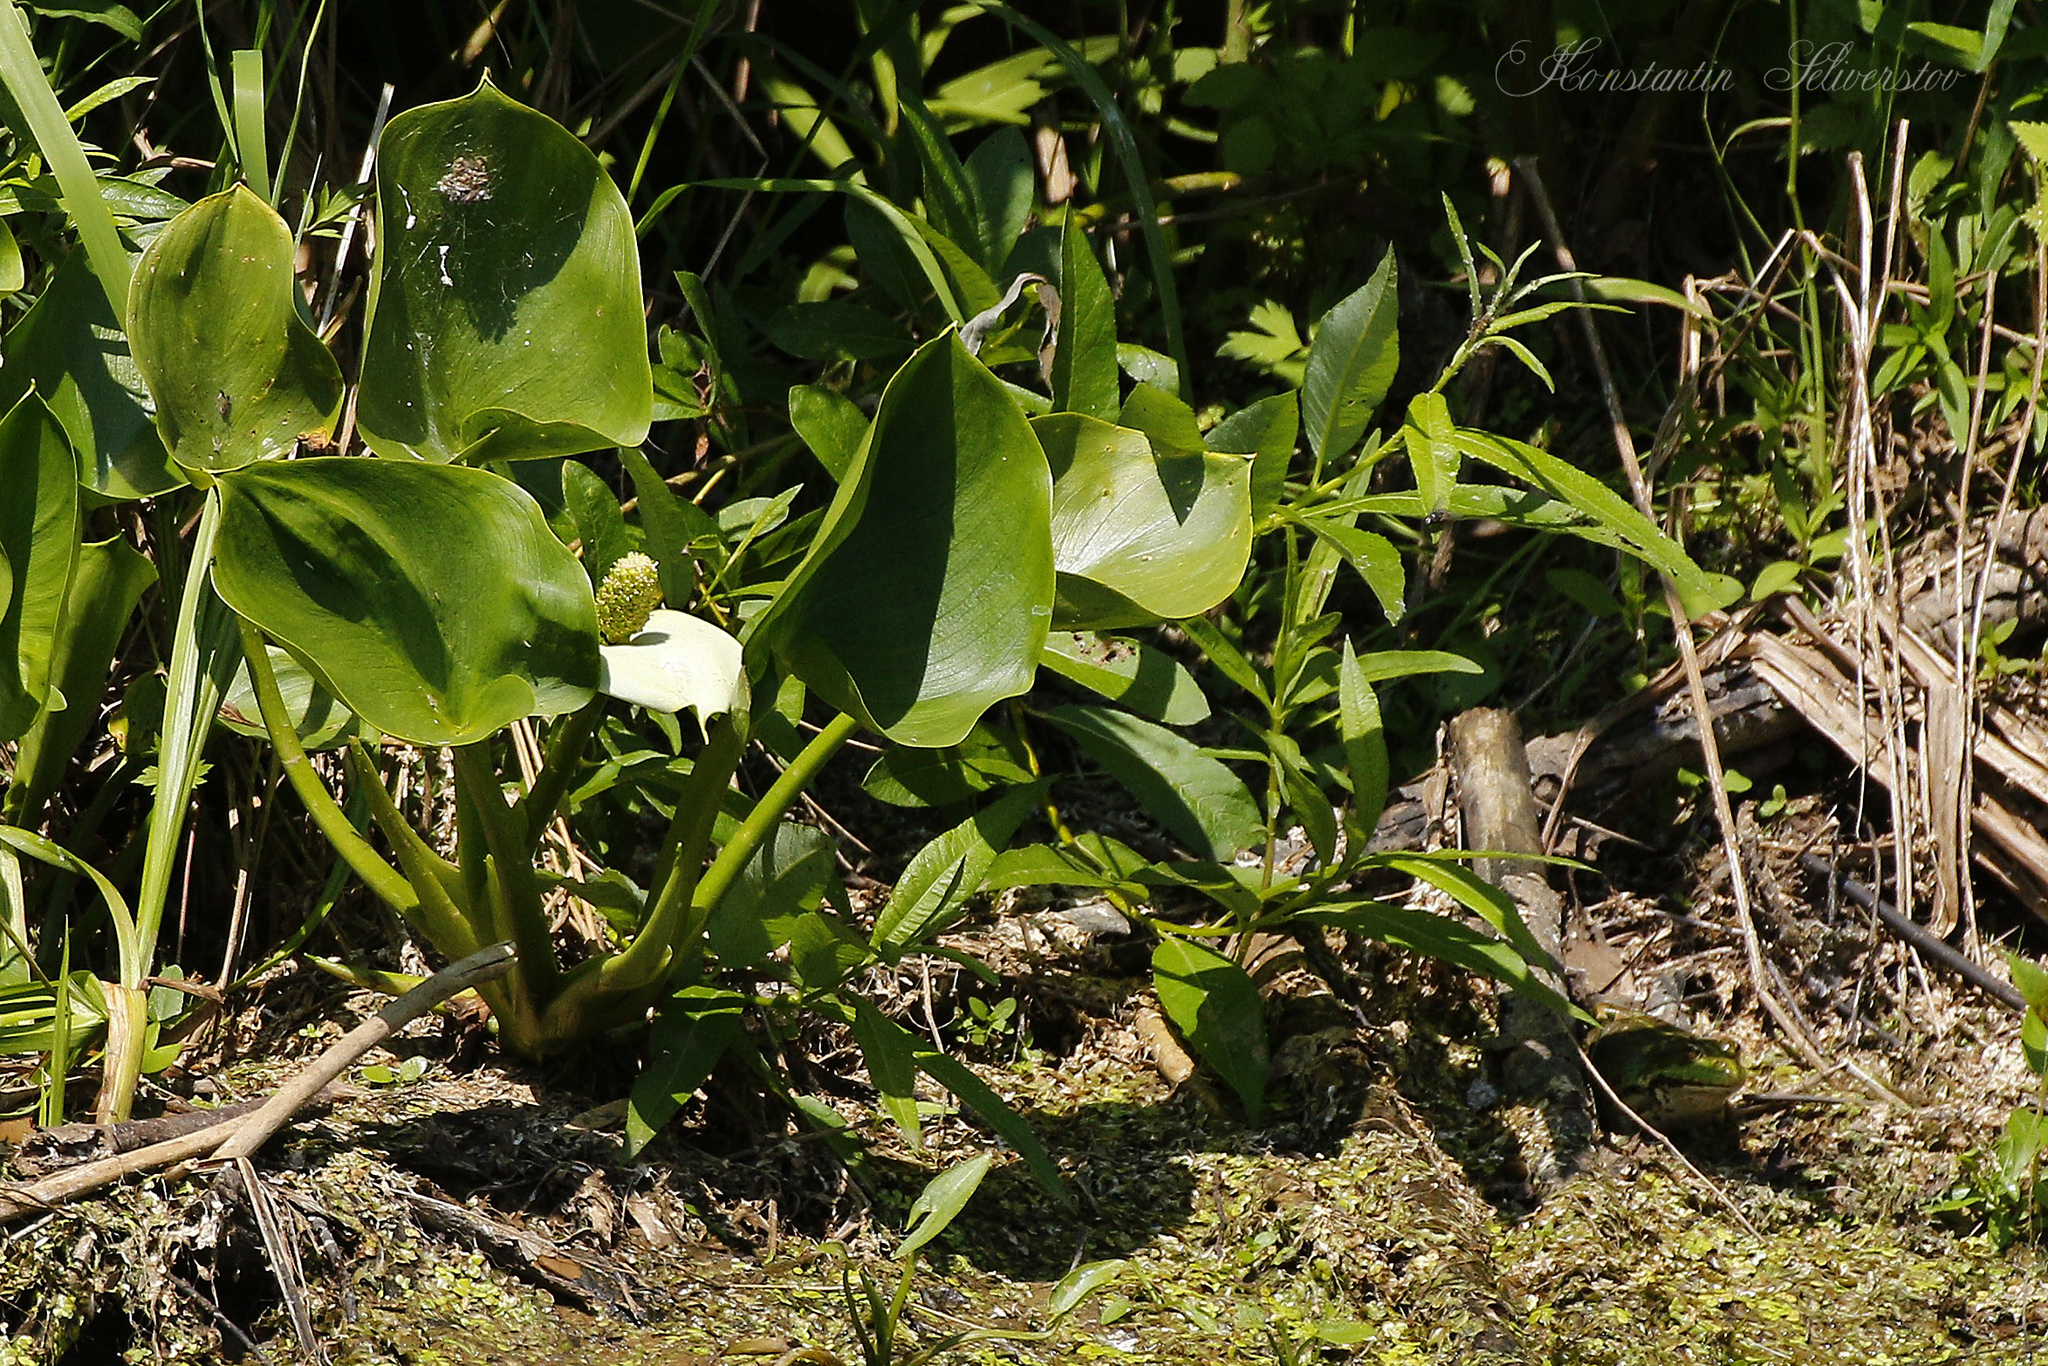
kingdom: Plantae
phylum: Tracheophyta
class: Liliopsida
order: Alismatales
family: Araceae
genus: Calla
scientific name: Calla palustris
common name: Bog arum
